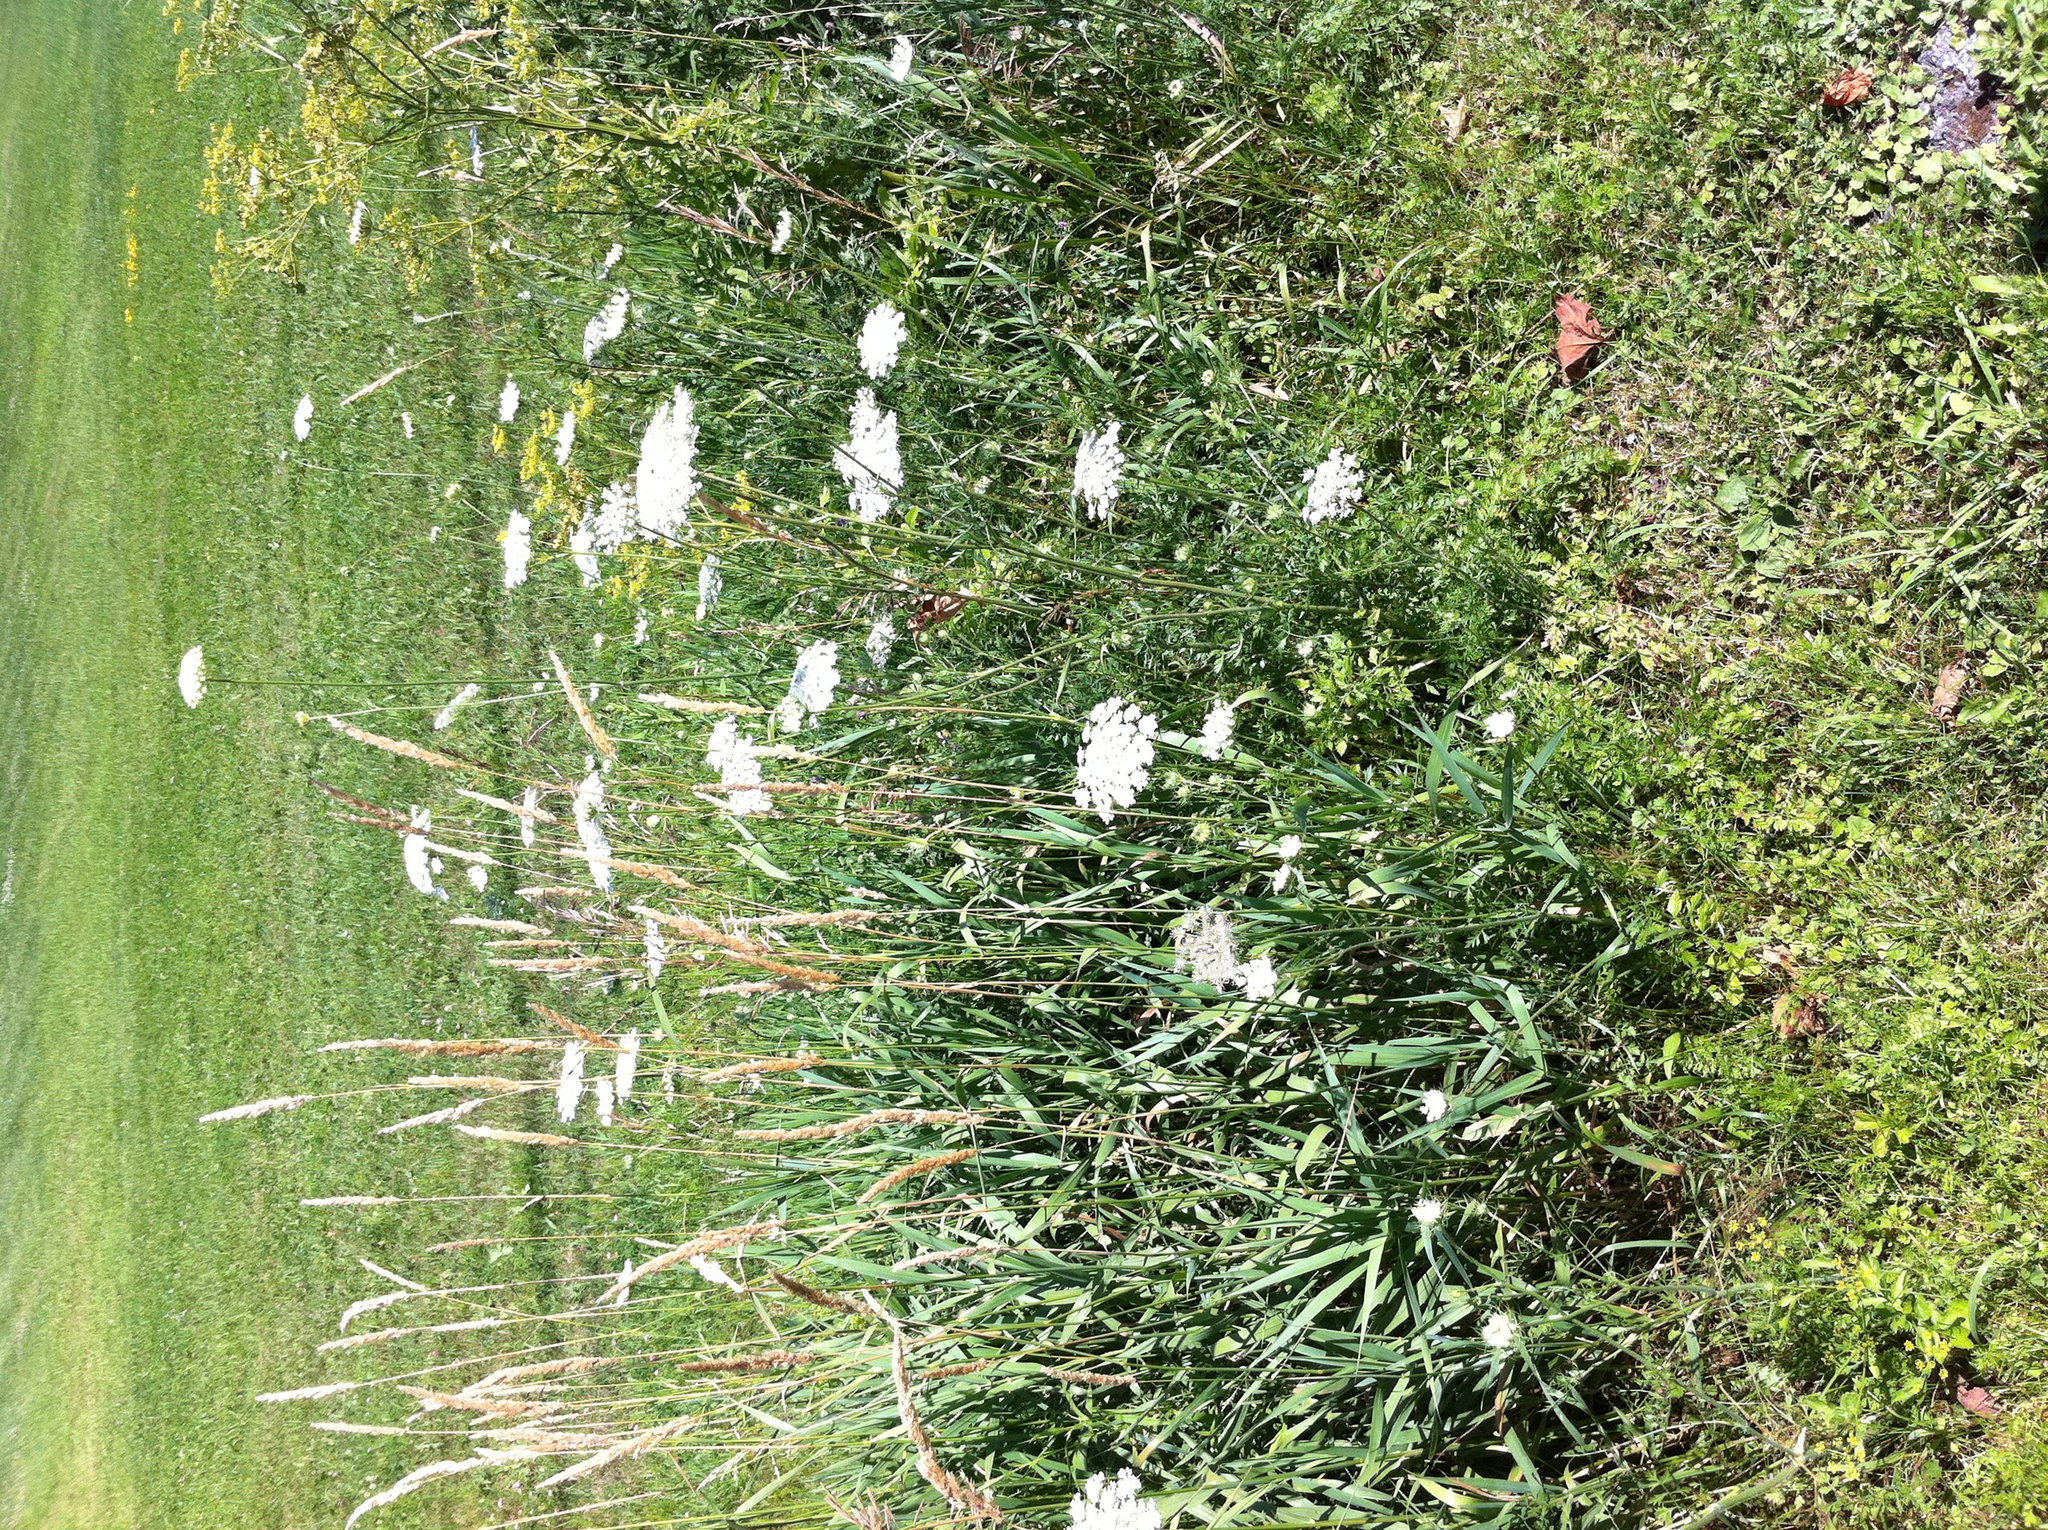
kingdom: Plantae
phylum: Tracheophyta
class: Magnoliopsida
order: Apiales
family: Apiaceae
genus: Pastinaca
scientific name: Pastinaca sativa
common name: Wild parsnip
